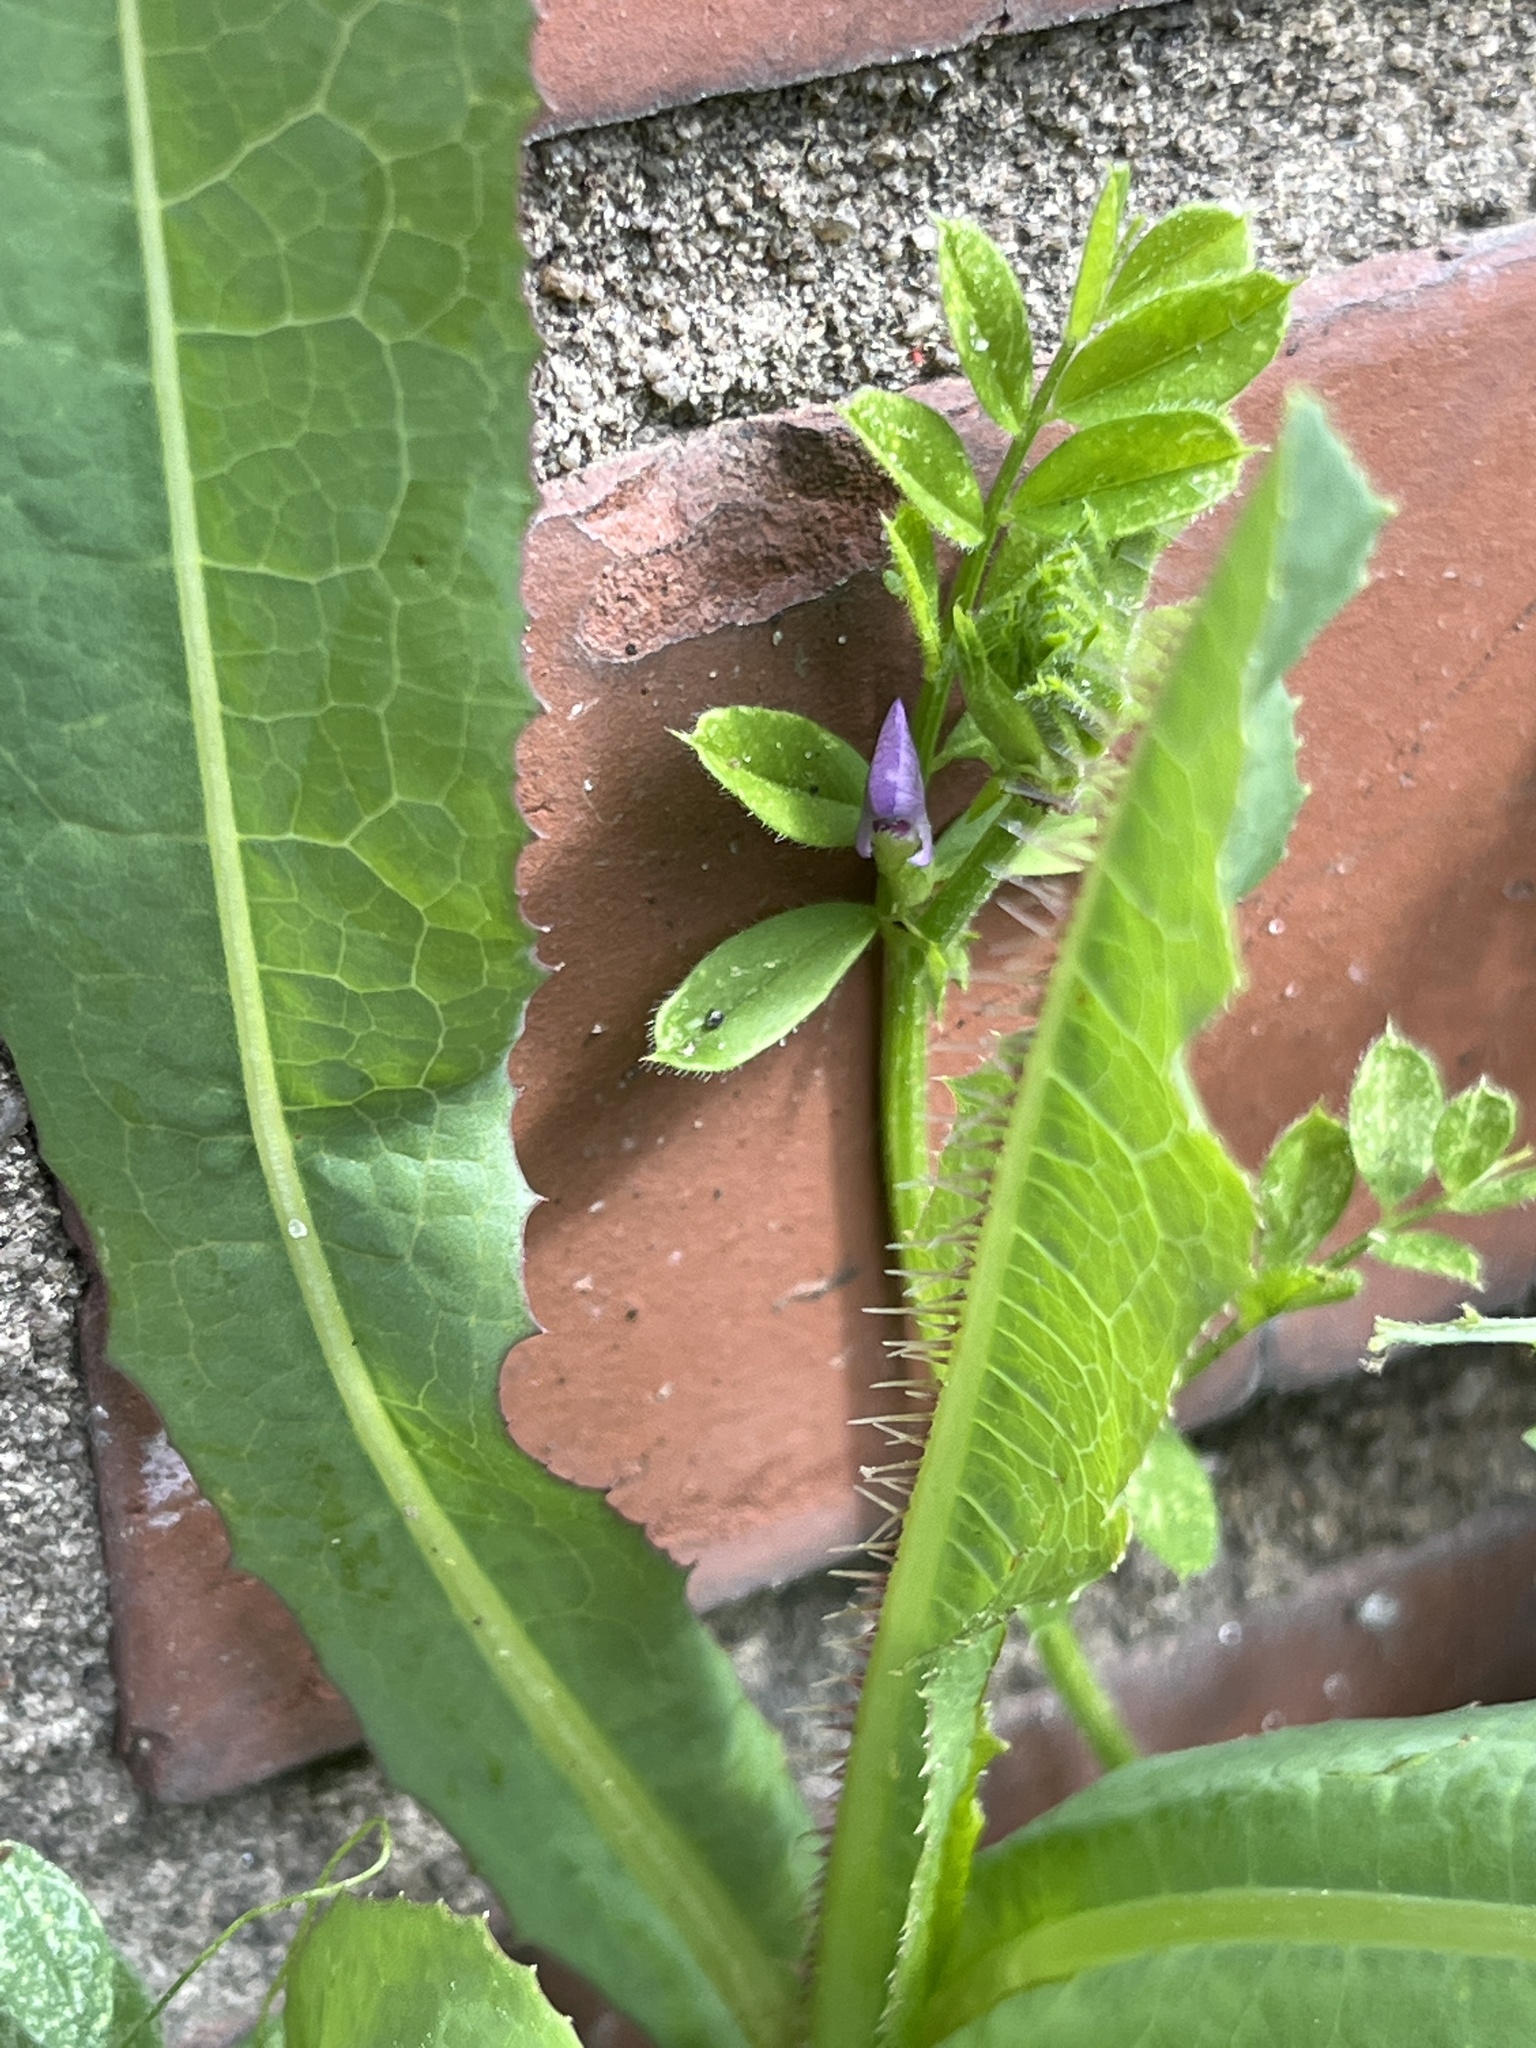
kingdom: Plantae
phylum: Tracheophyta
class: Magnoliopsida
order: Fabales
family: Fabaceae
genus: Vicia
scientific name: Vicia sativa
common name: Garden vetch
